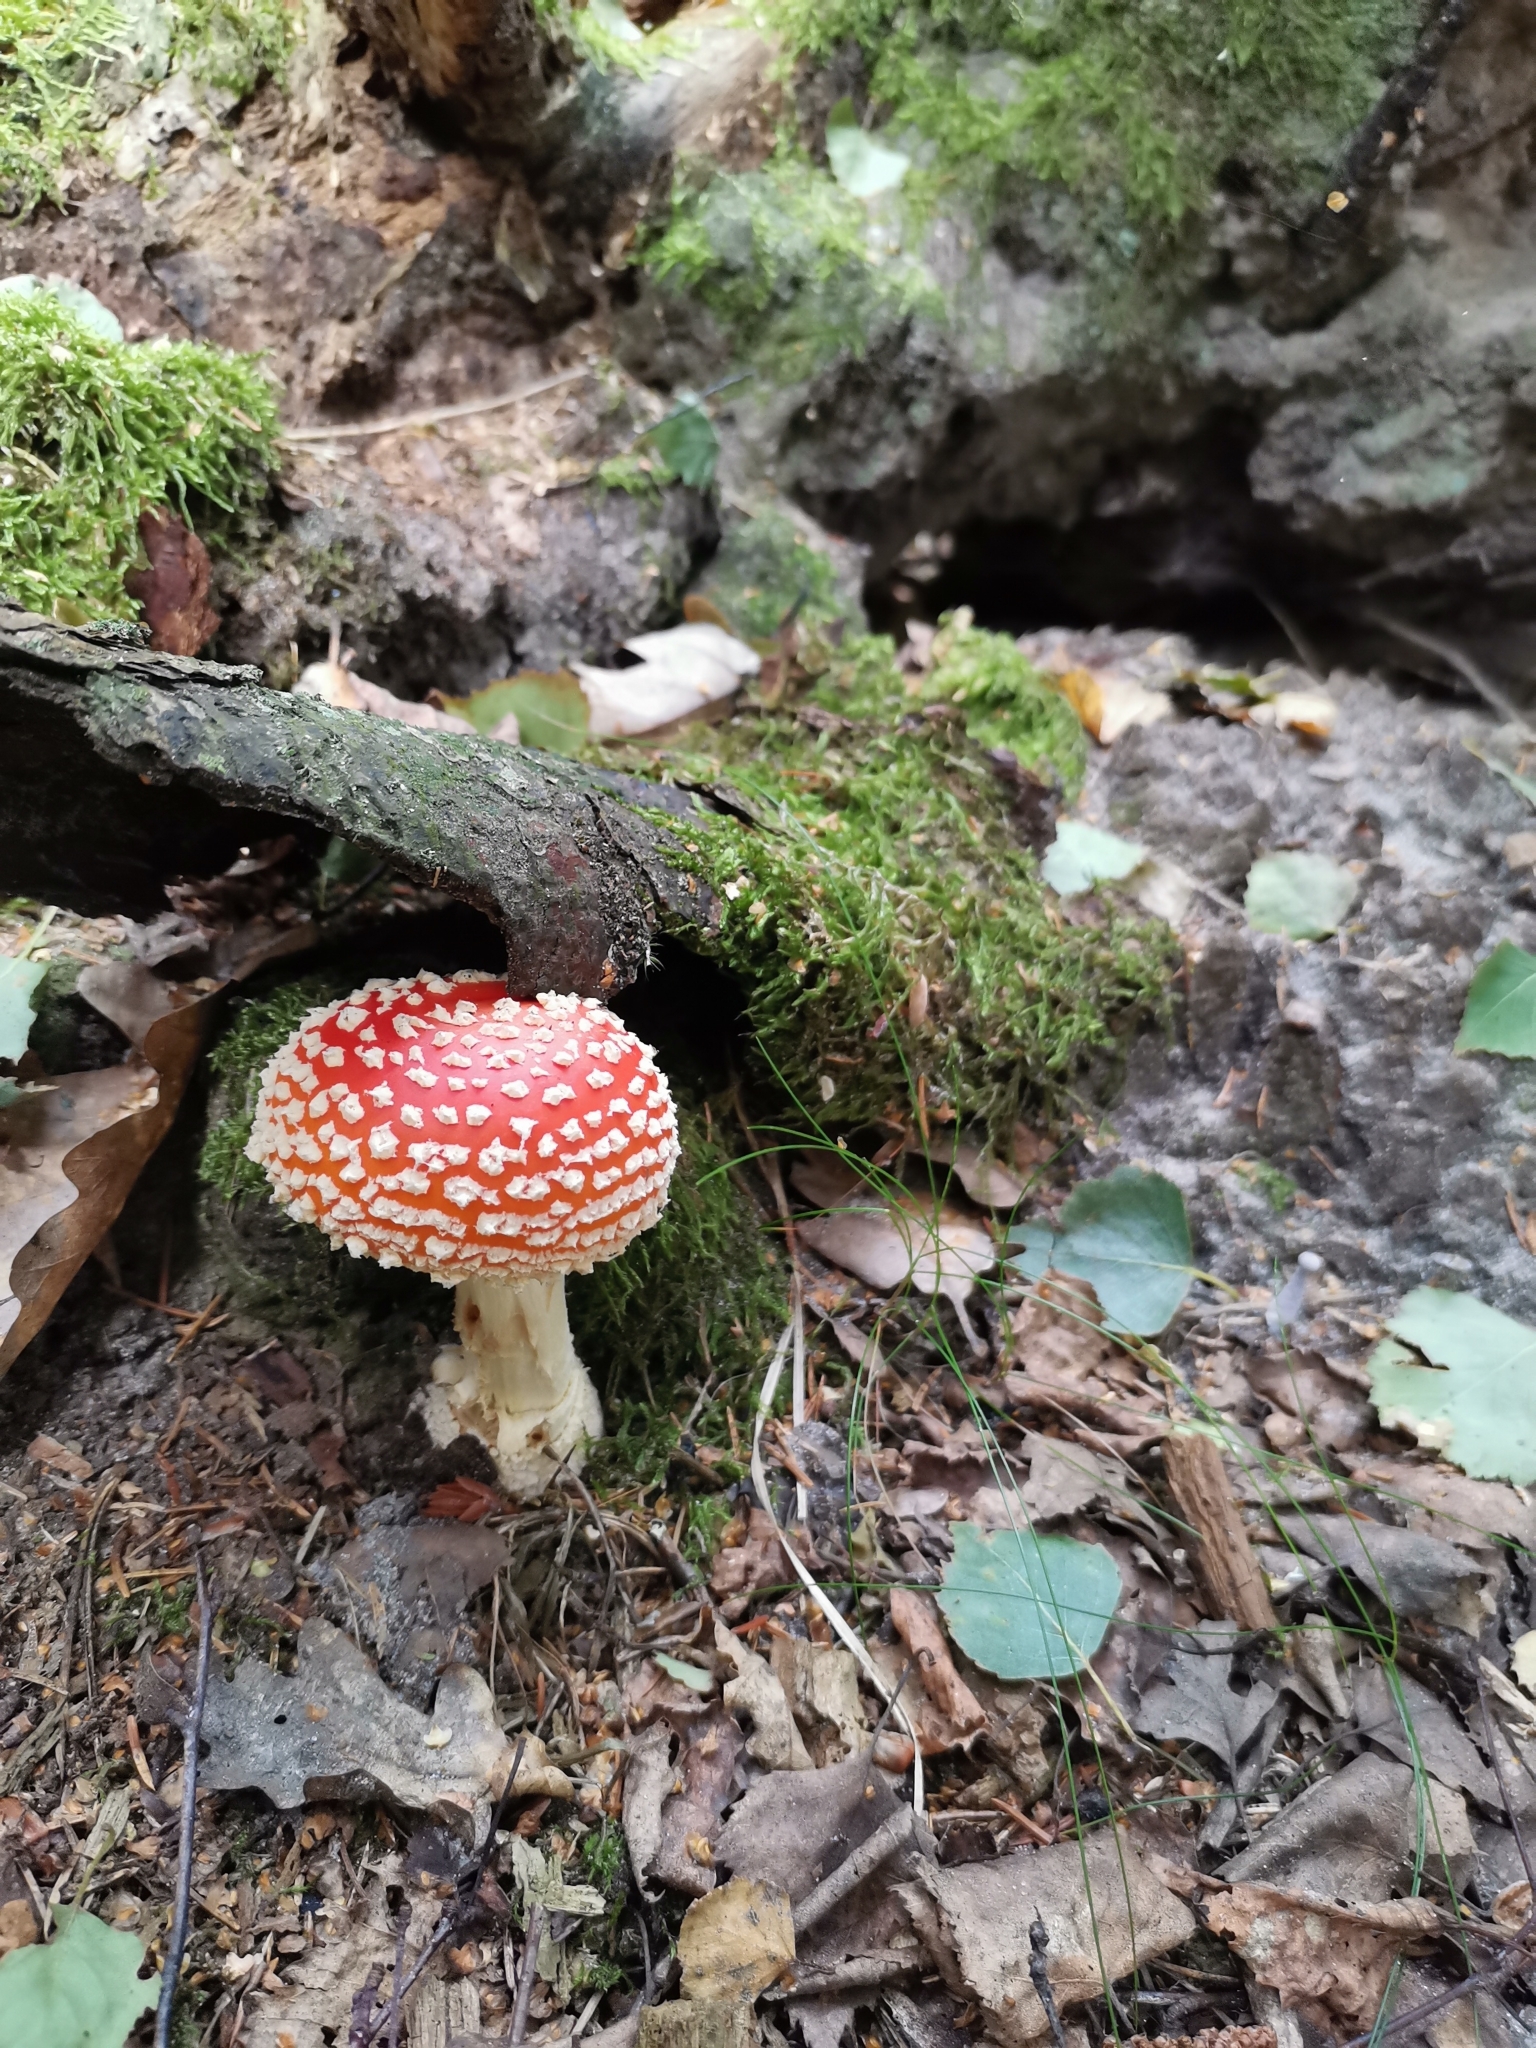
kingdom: Fungi
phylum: Basidiomycota
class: Agaricomycetes
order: Agaricales
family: Amanitaceae
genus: Amanita
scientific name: Amanita muscaria
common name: Fly agaric
